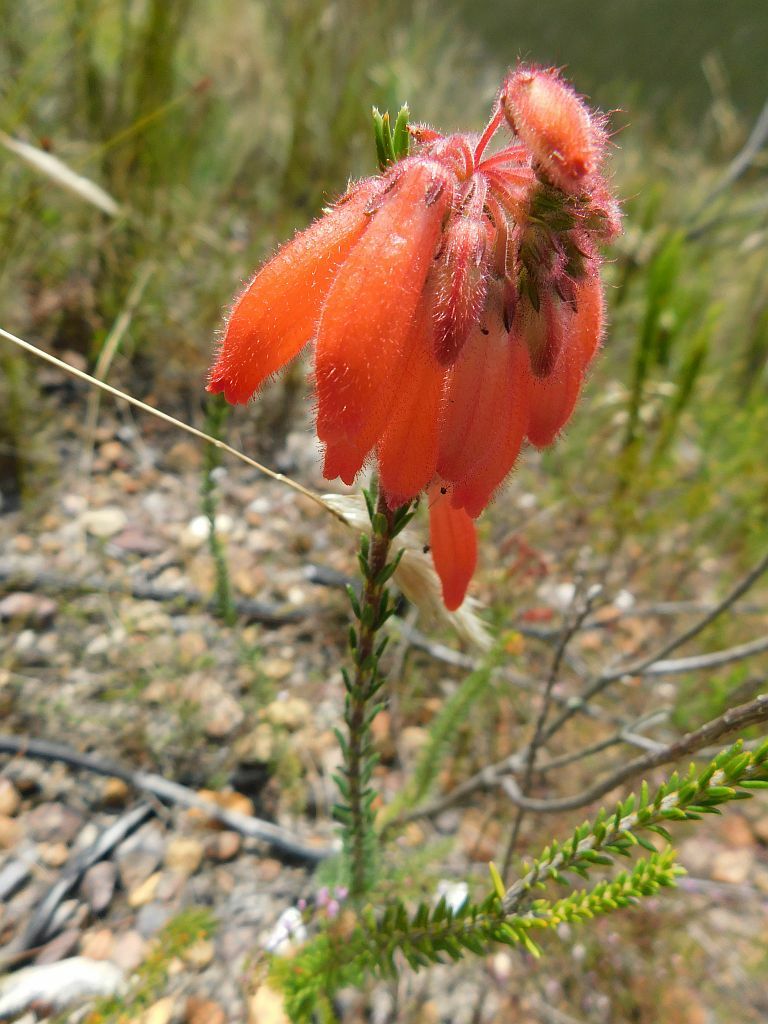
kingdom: Plantae
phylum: Tracheophyta
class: Magnoliopsida
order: Ericales
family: Ericaceae
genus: Erica
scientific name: Erica cerinthoides
